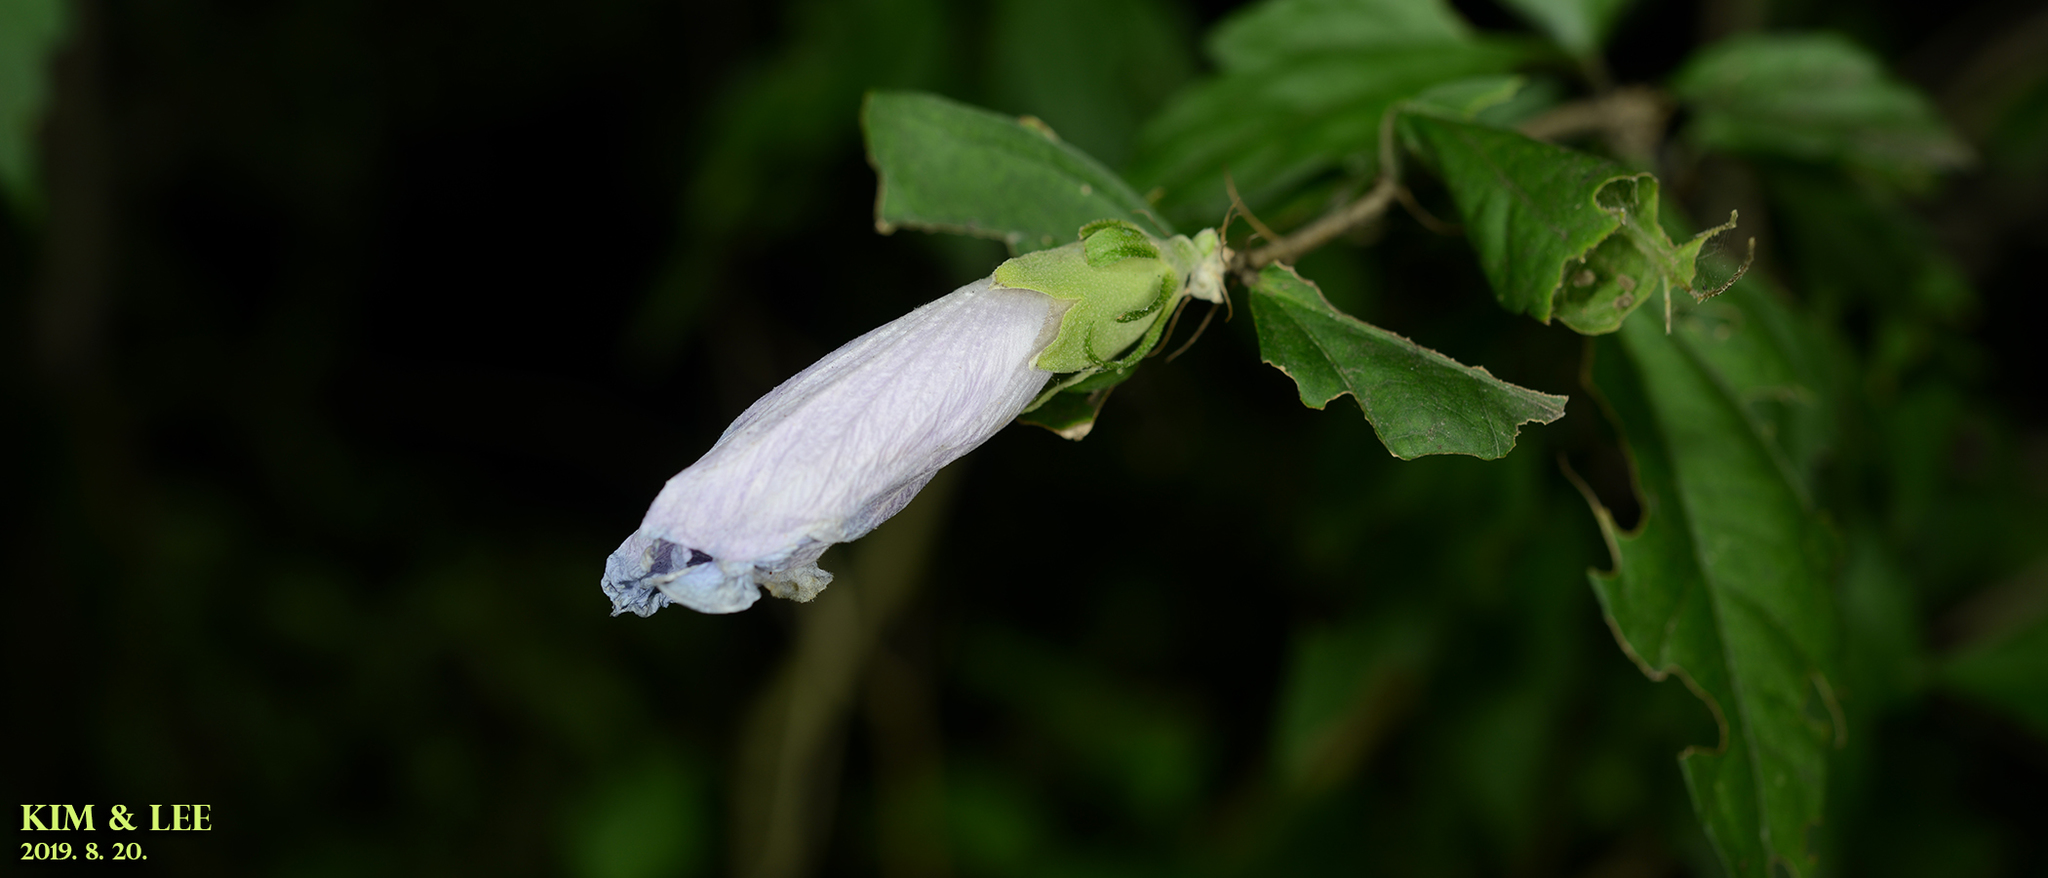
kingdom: Plantae
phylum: Tracheophyta
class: Magnoliopsida
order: Malvales
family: Malvaceae
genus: Hibiscus
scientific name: Hibiscus syriacus
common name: Syrian ketmia
